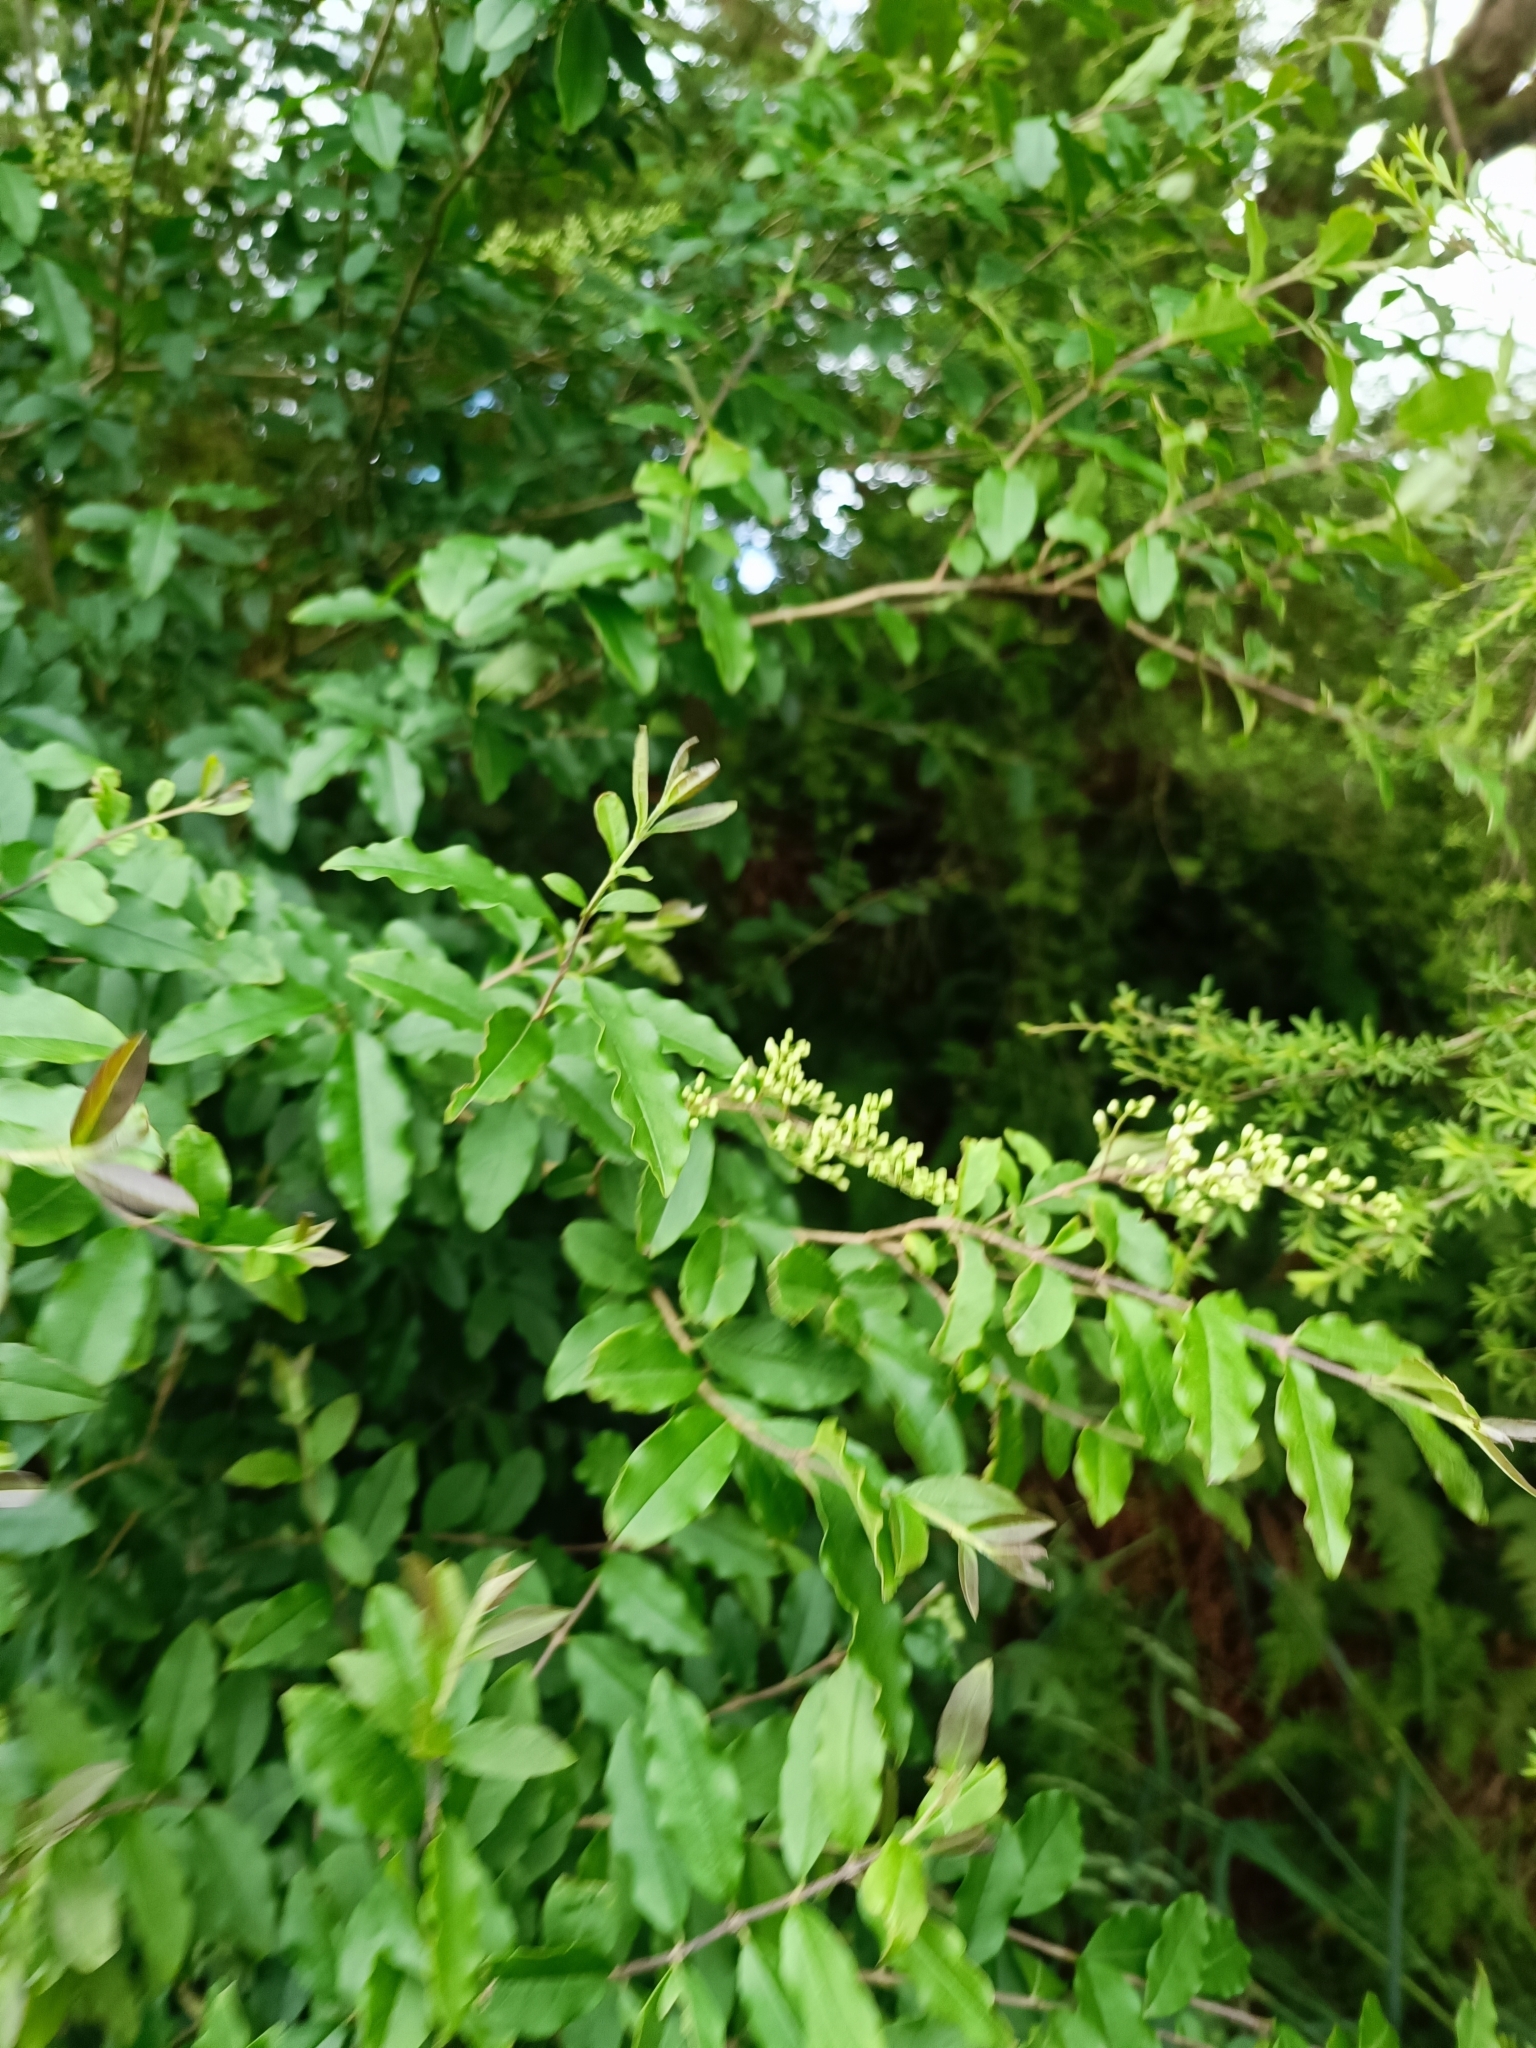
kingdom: Plantae
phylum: Tracheophyta
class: Magnoliopsida
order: Lamiales
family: Oleaceae
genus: Ligustrum
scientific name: Ligustrum sinense
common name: Chinese privet
